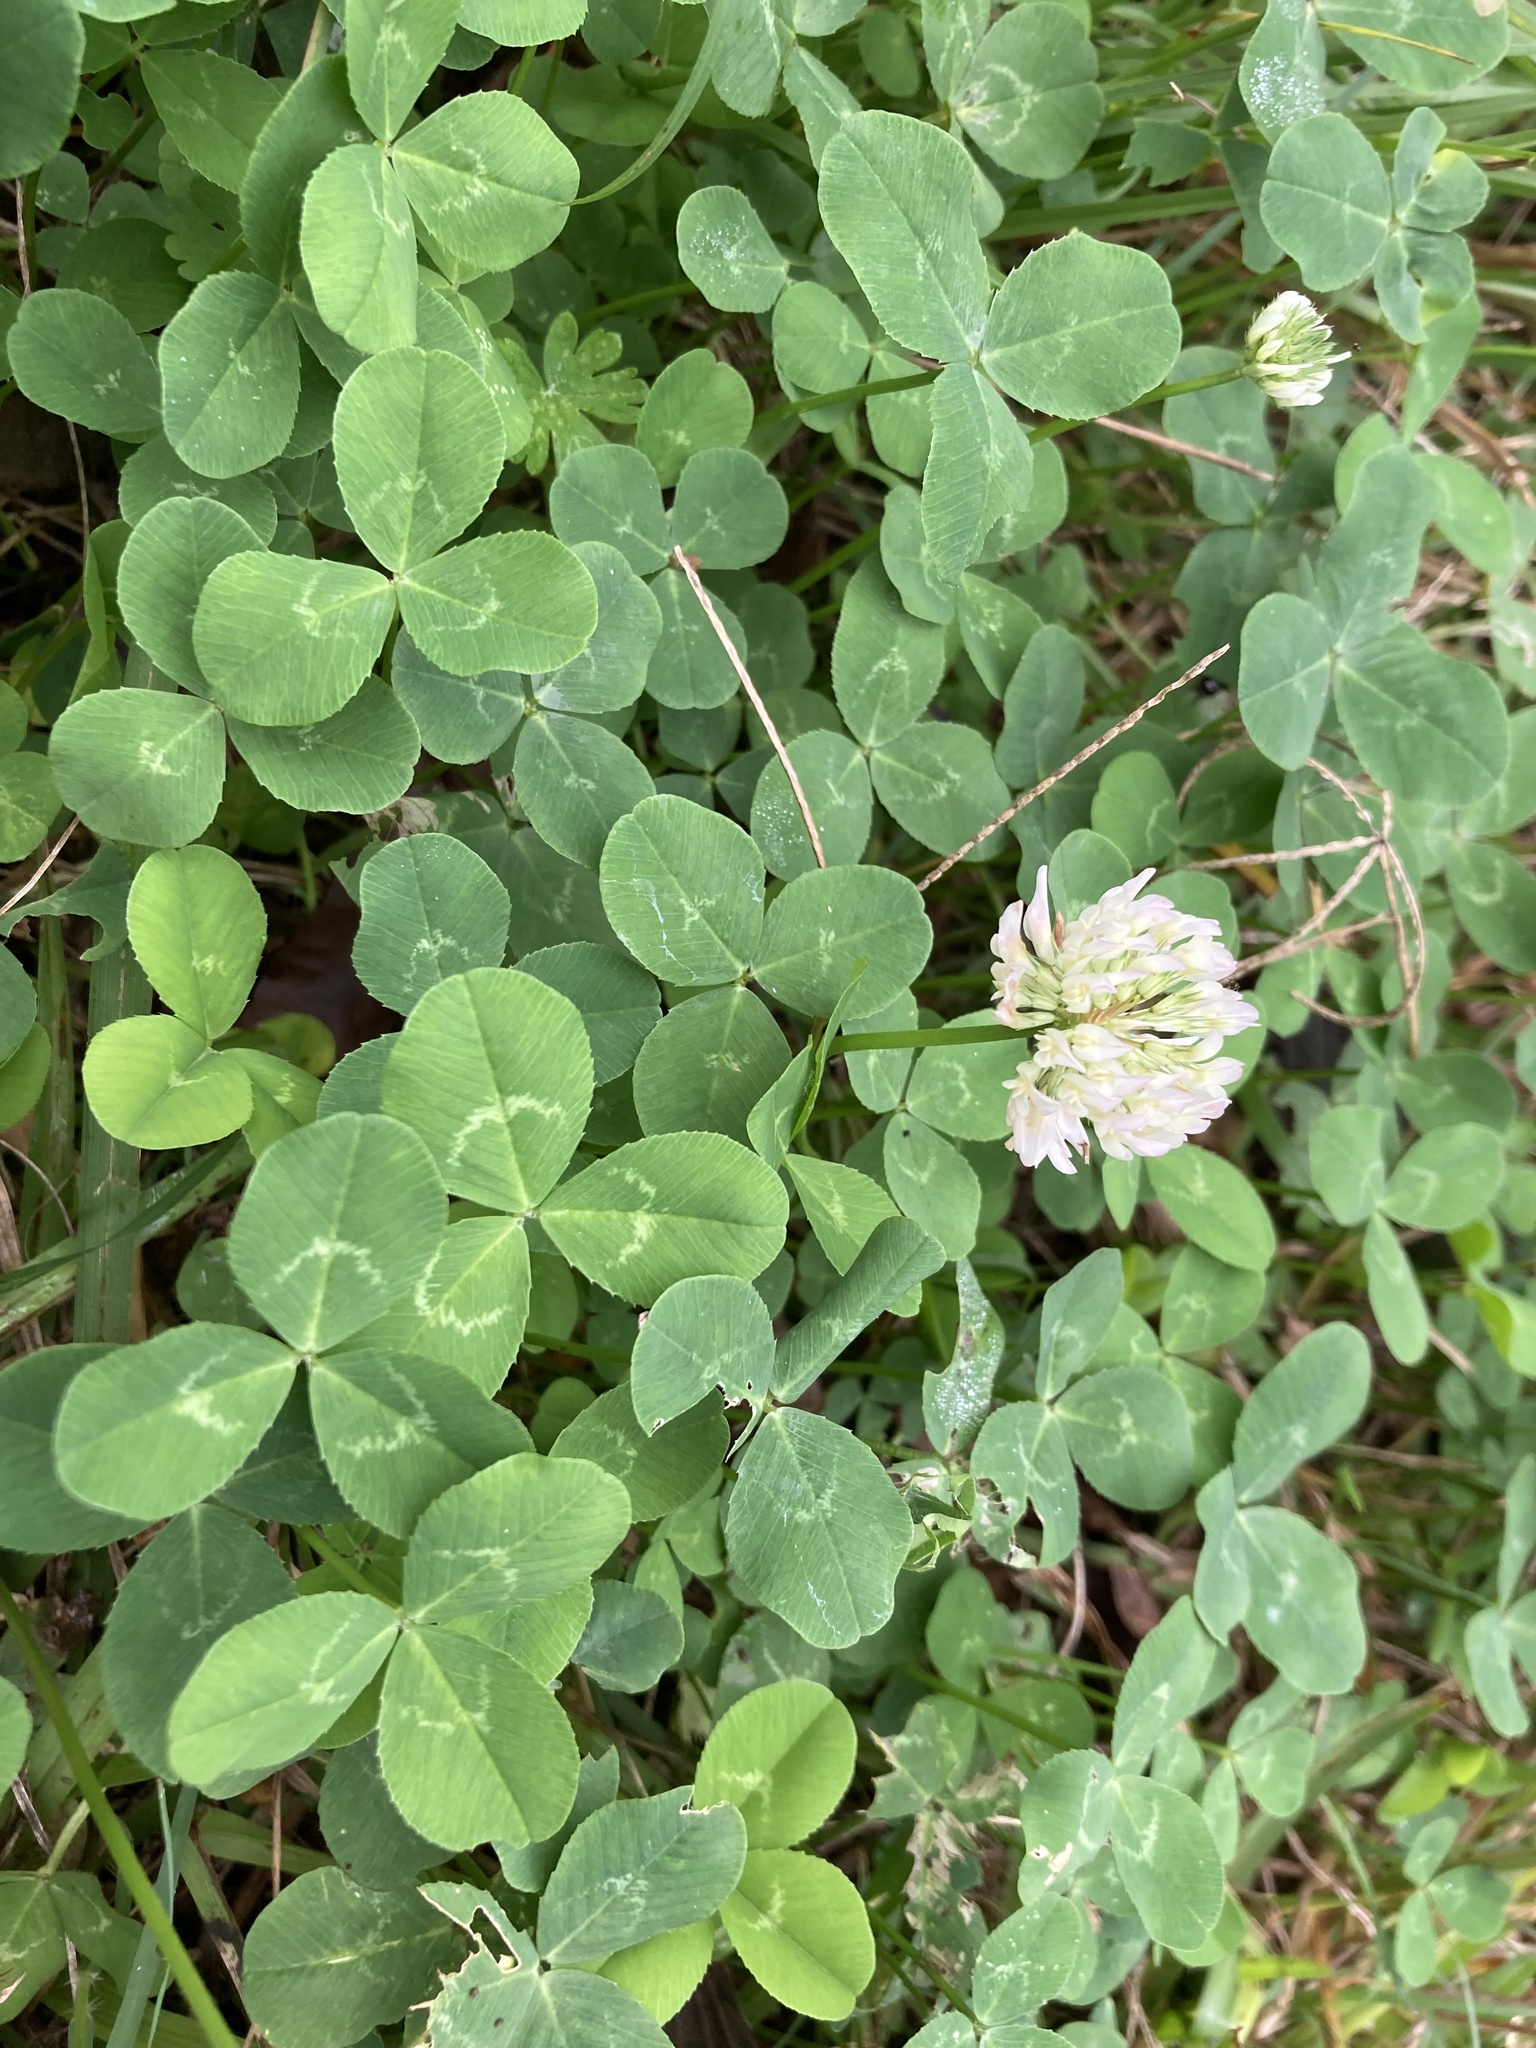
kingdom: Plantae
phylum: Tracheophyta
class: Magnoliopsida
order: Fabales
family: Fabaceae
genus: Trifolium
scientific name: Trifolium repens
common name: White clover
